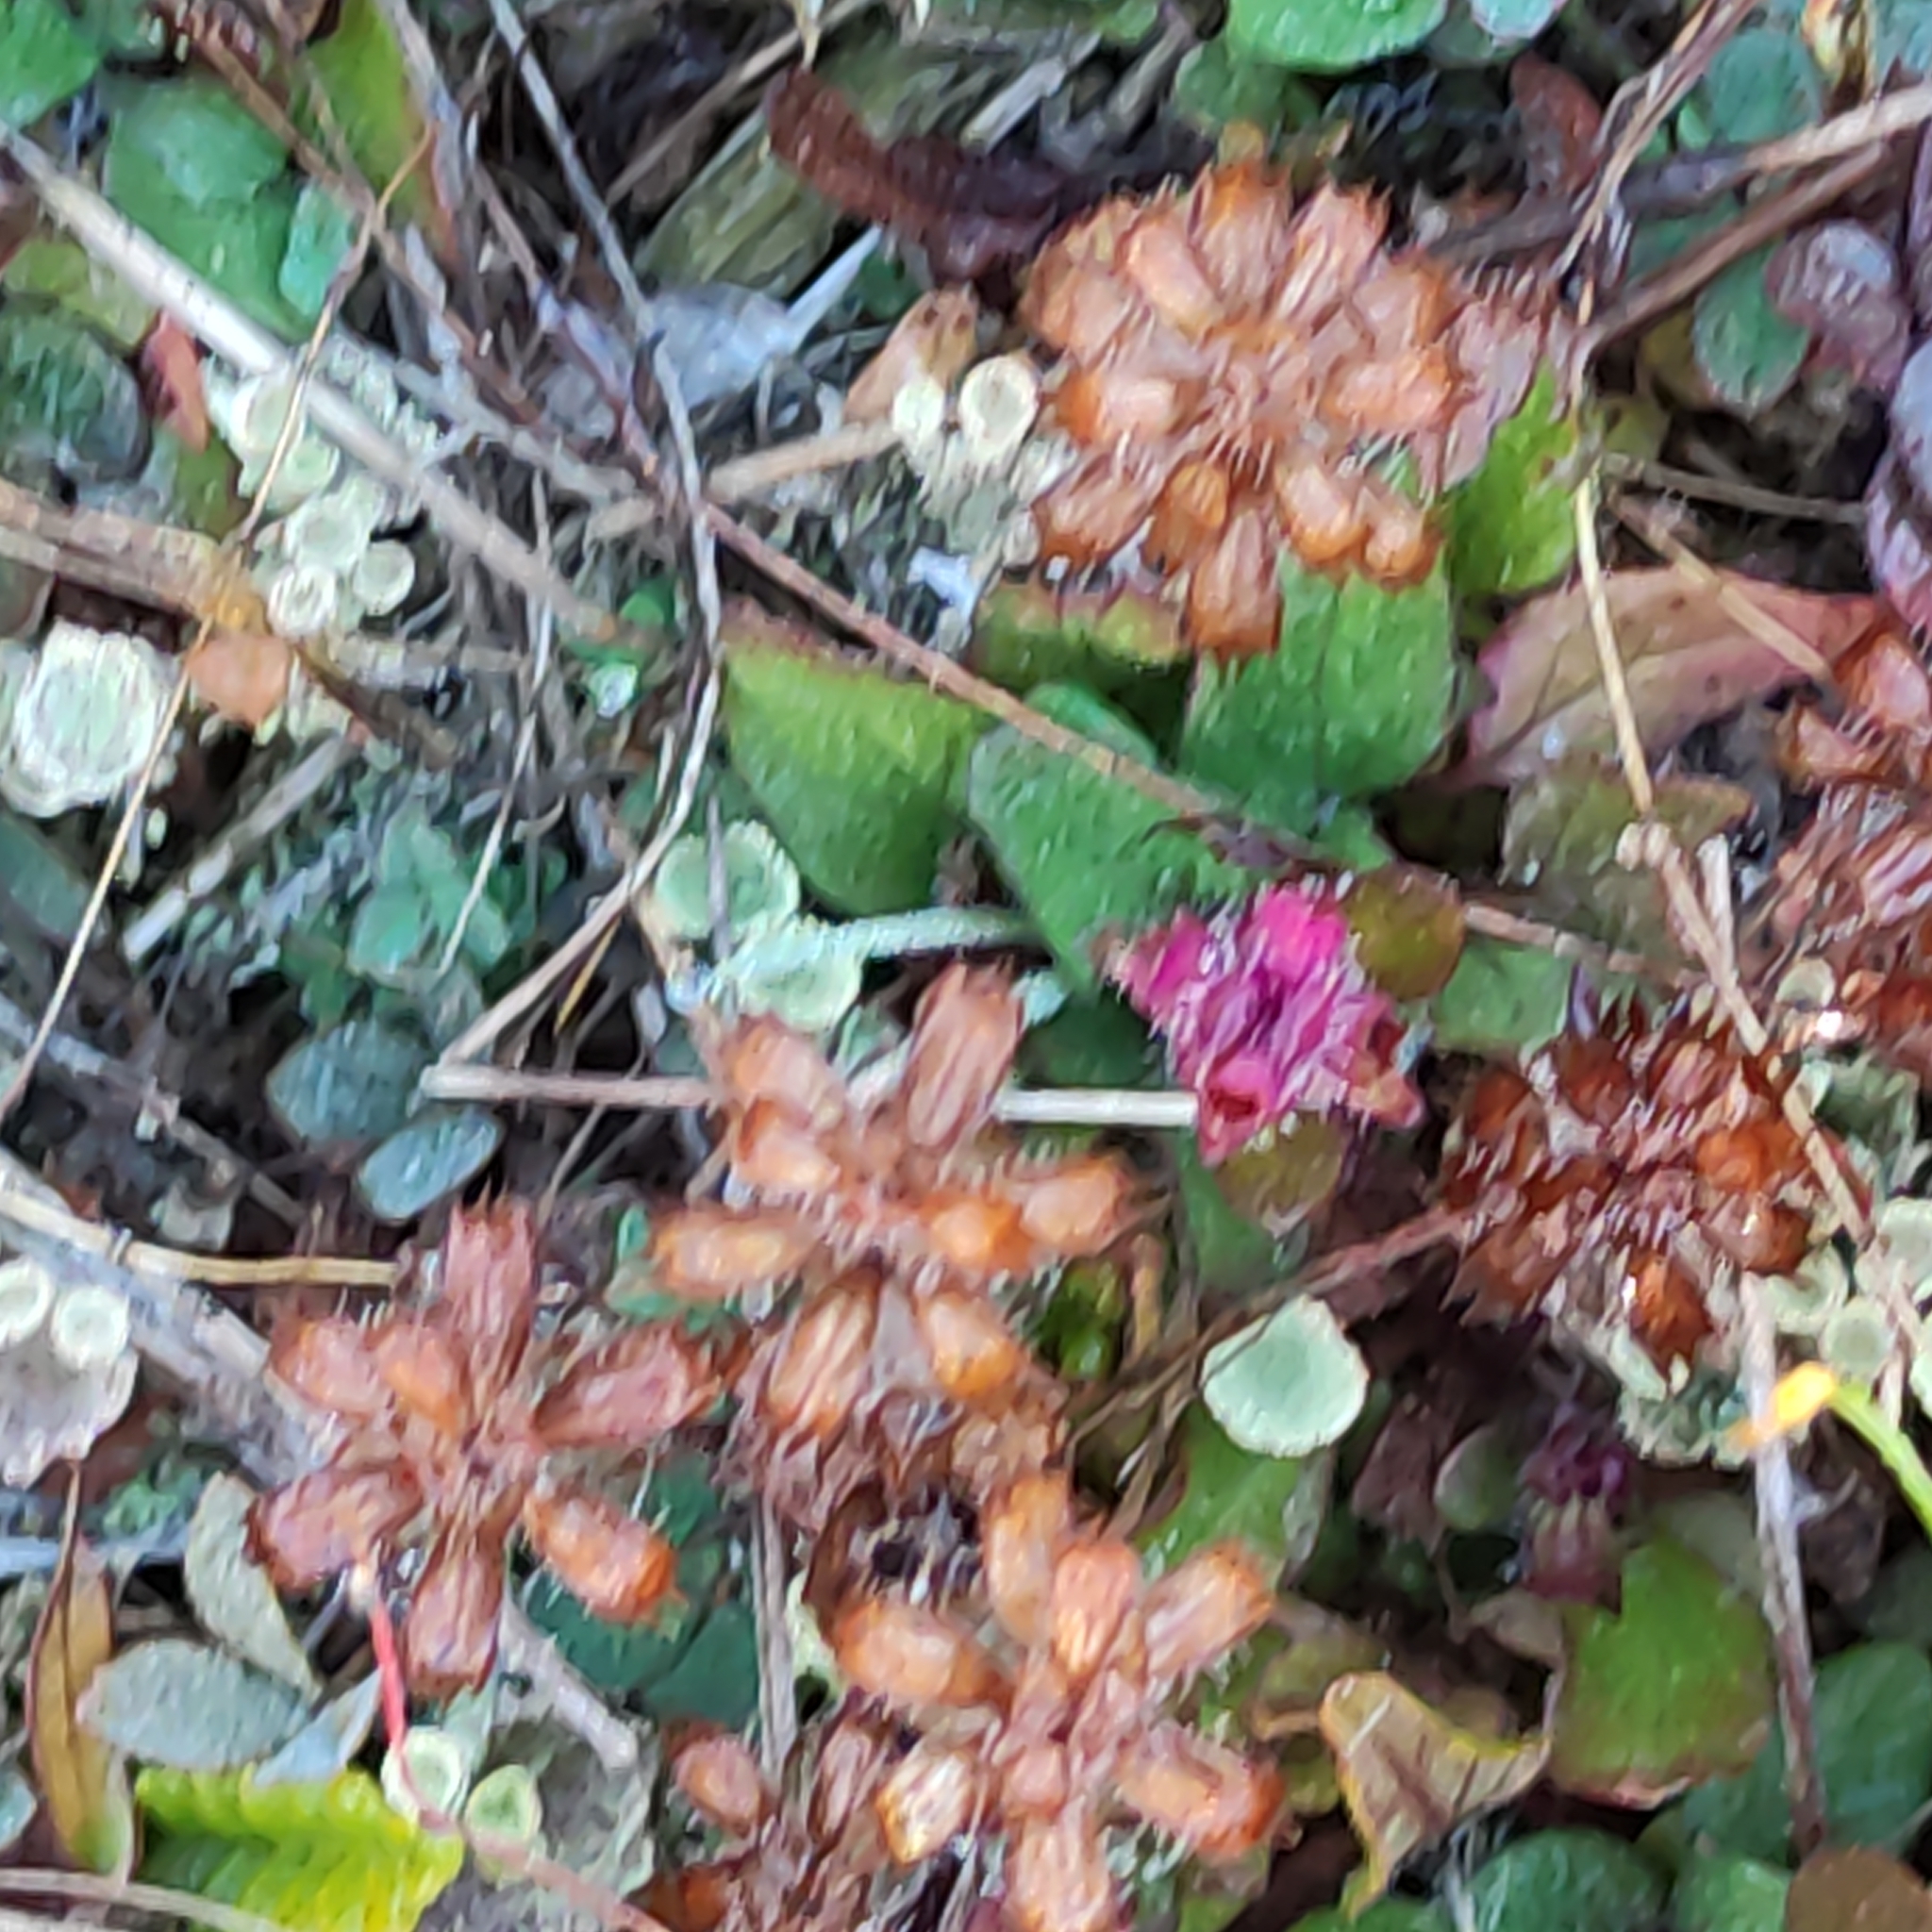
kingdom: Plantae
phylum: Tracheophyta
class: Magnoliopsida
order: Lamiales
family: Lamiaceae
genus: Prunella
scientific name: Prunella vulgaris
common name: Heal-all
